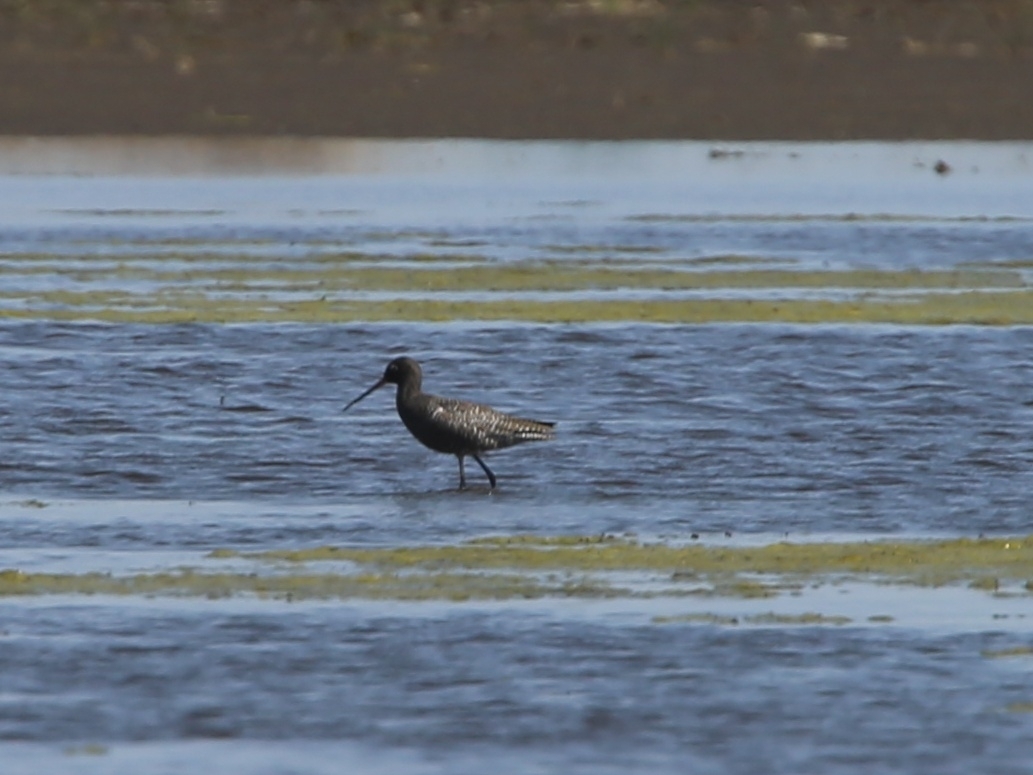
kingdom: Animalia
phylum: Chordata
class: Aves
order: Charadriiformes
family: Scolopacidae
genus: Tringa
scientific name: Tringa erythropus
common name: Spotted redshank
